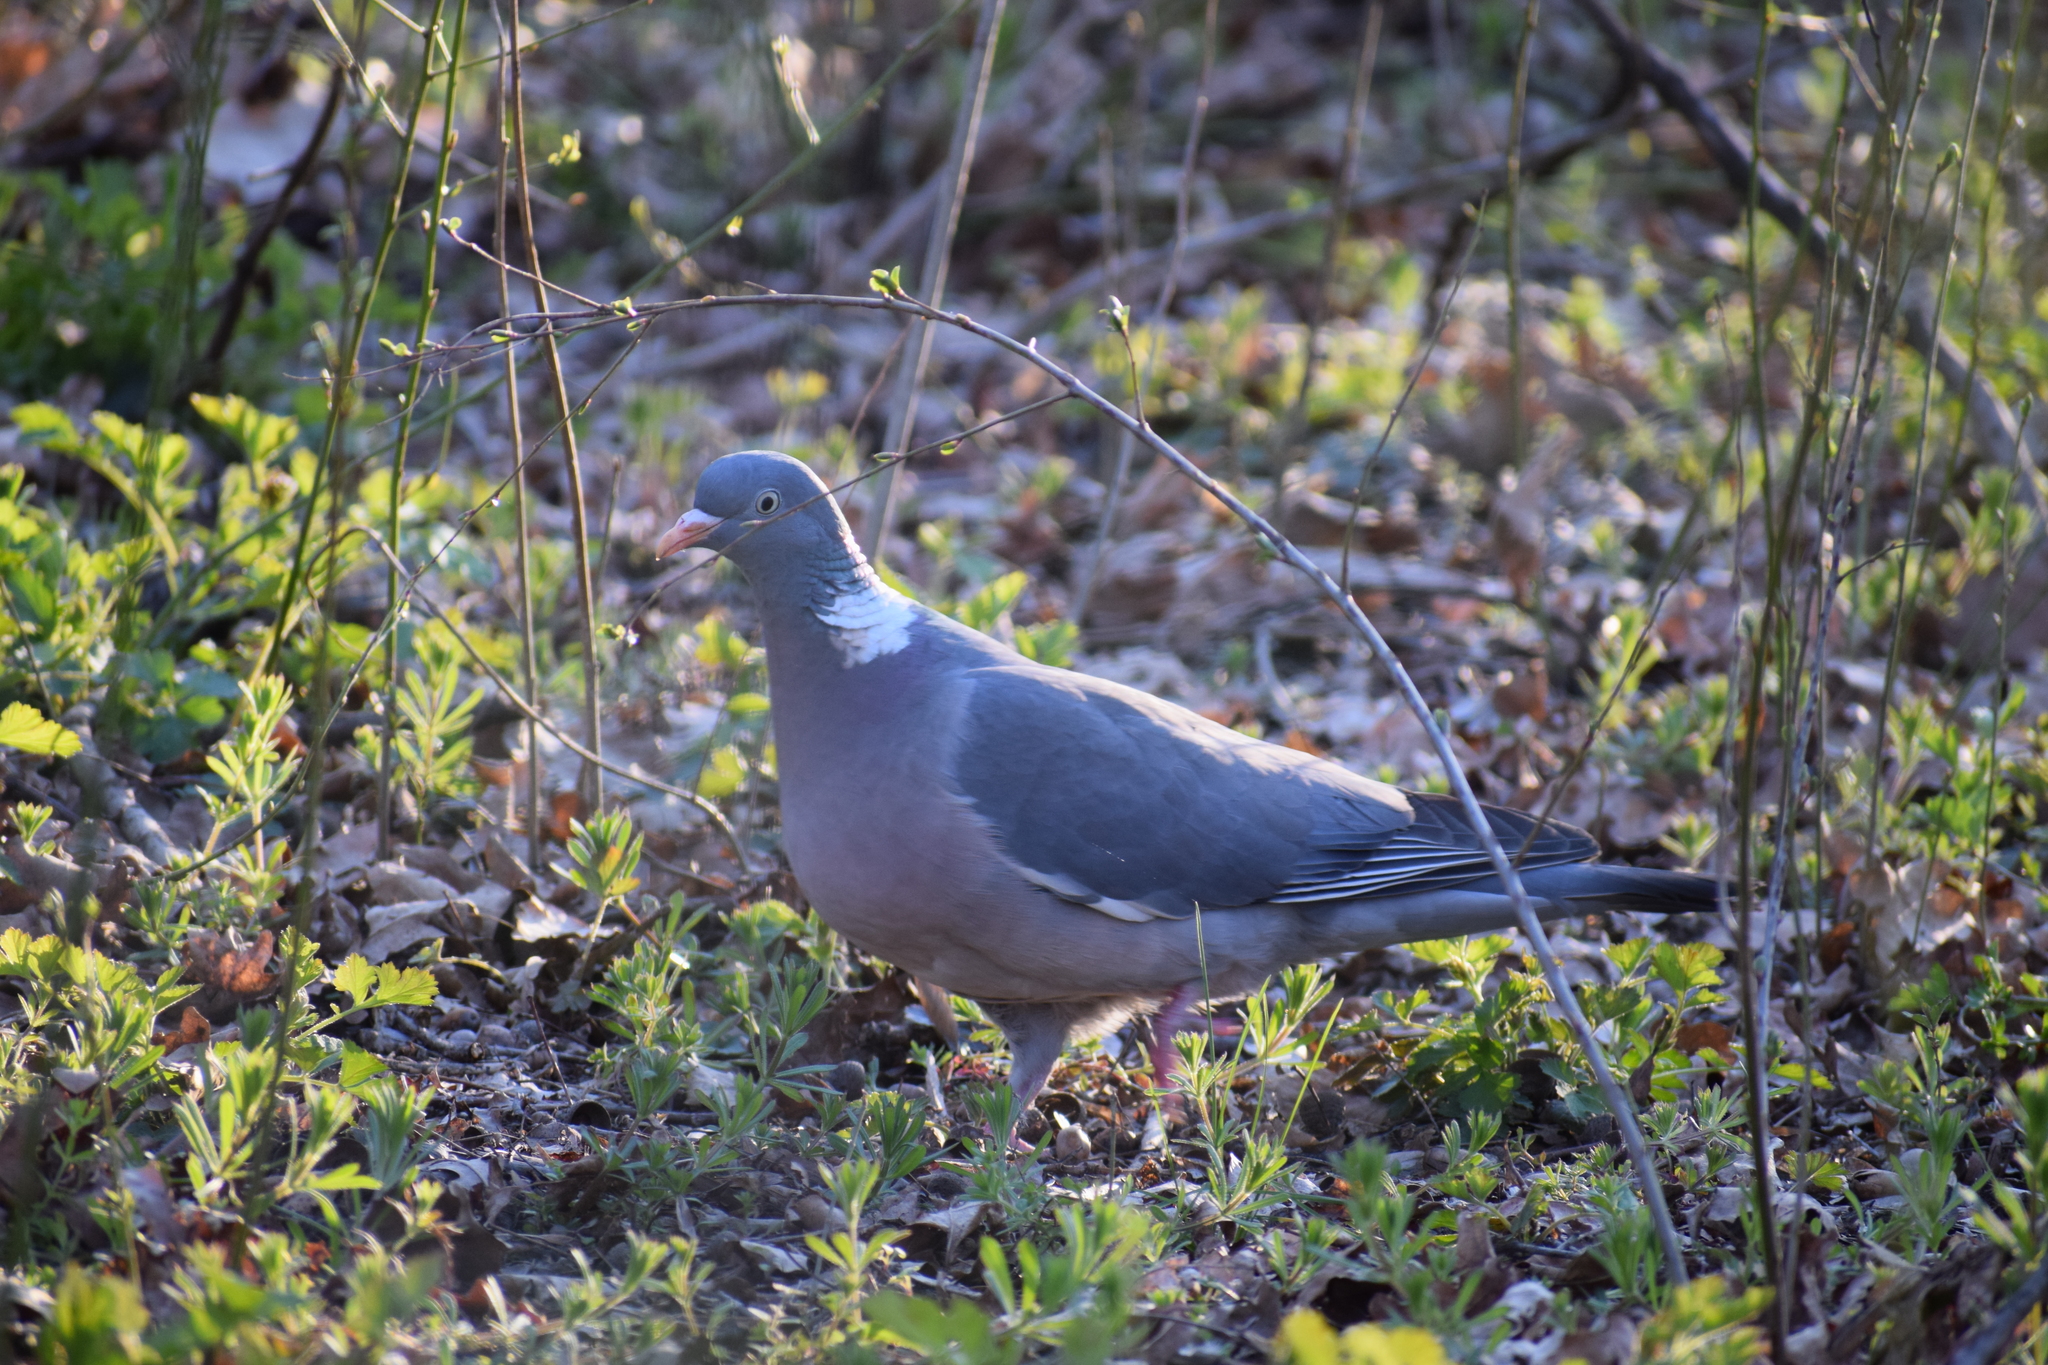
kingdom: Animalia
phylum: Chordata
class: Aves
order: Columbiformes
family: Columbidae
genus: Columba
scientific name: Columba palumbus
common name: Common wood pigeon
